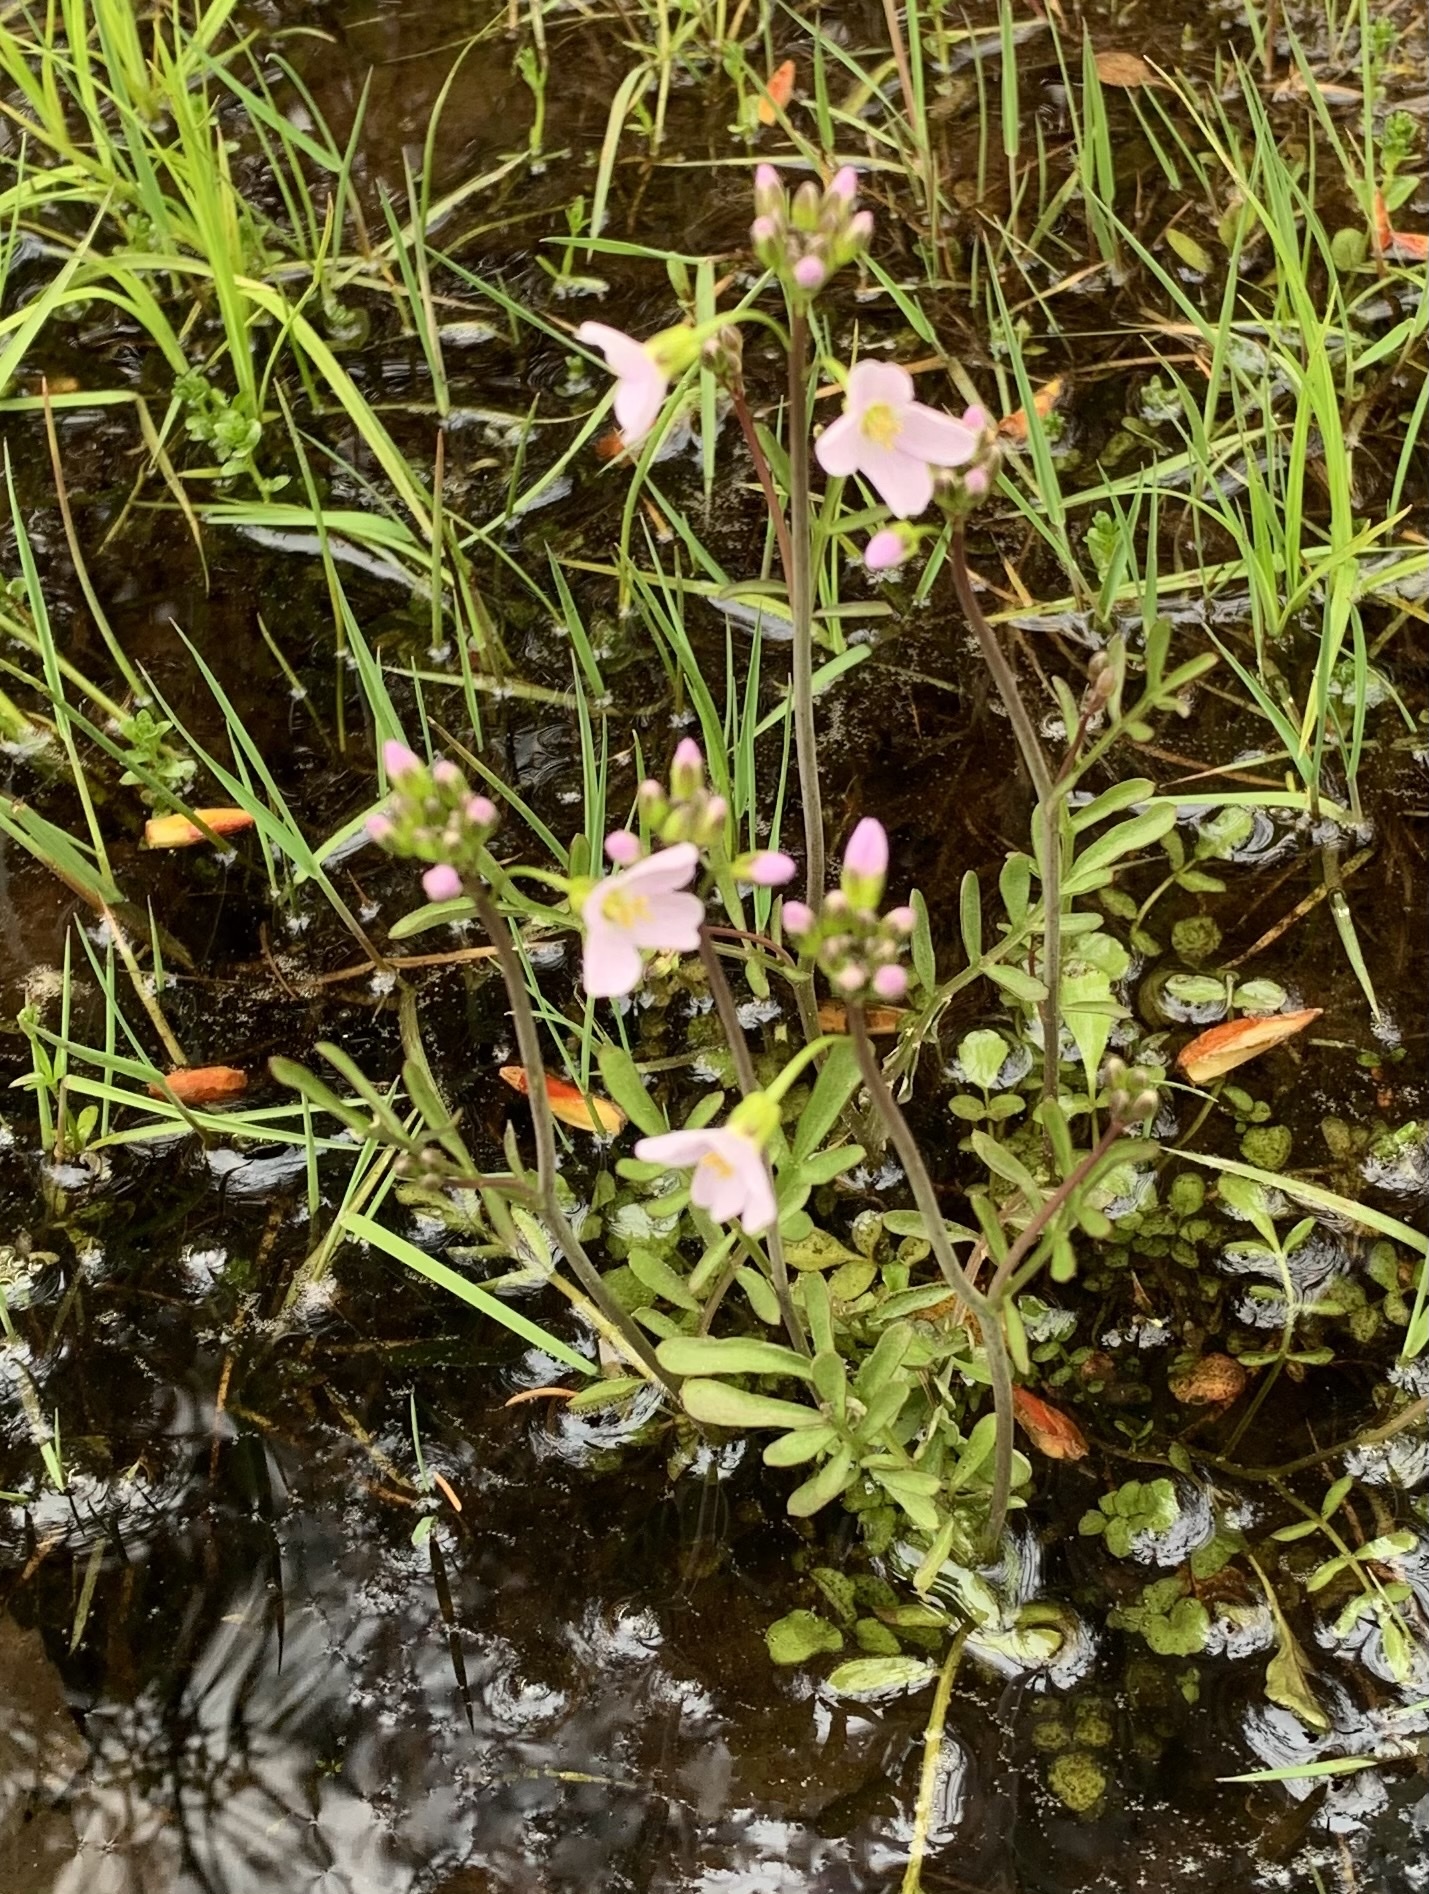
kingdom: Plantae
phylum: Tracheophyta
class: Magnoliopsida
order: Brassicales
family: Brassicaceae
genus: Cardamine
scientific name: Cardamine pratensis
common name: Cuckoo flower
